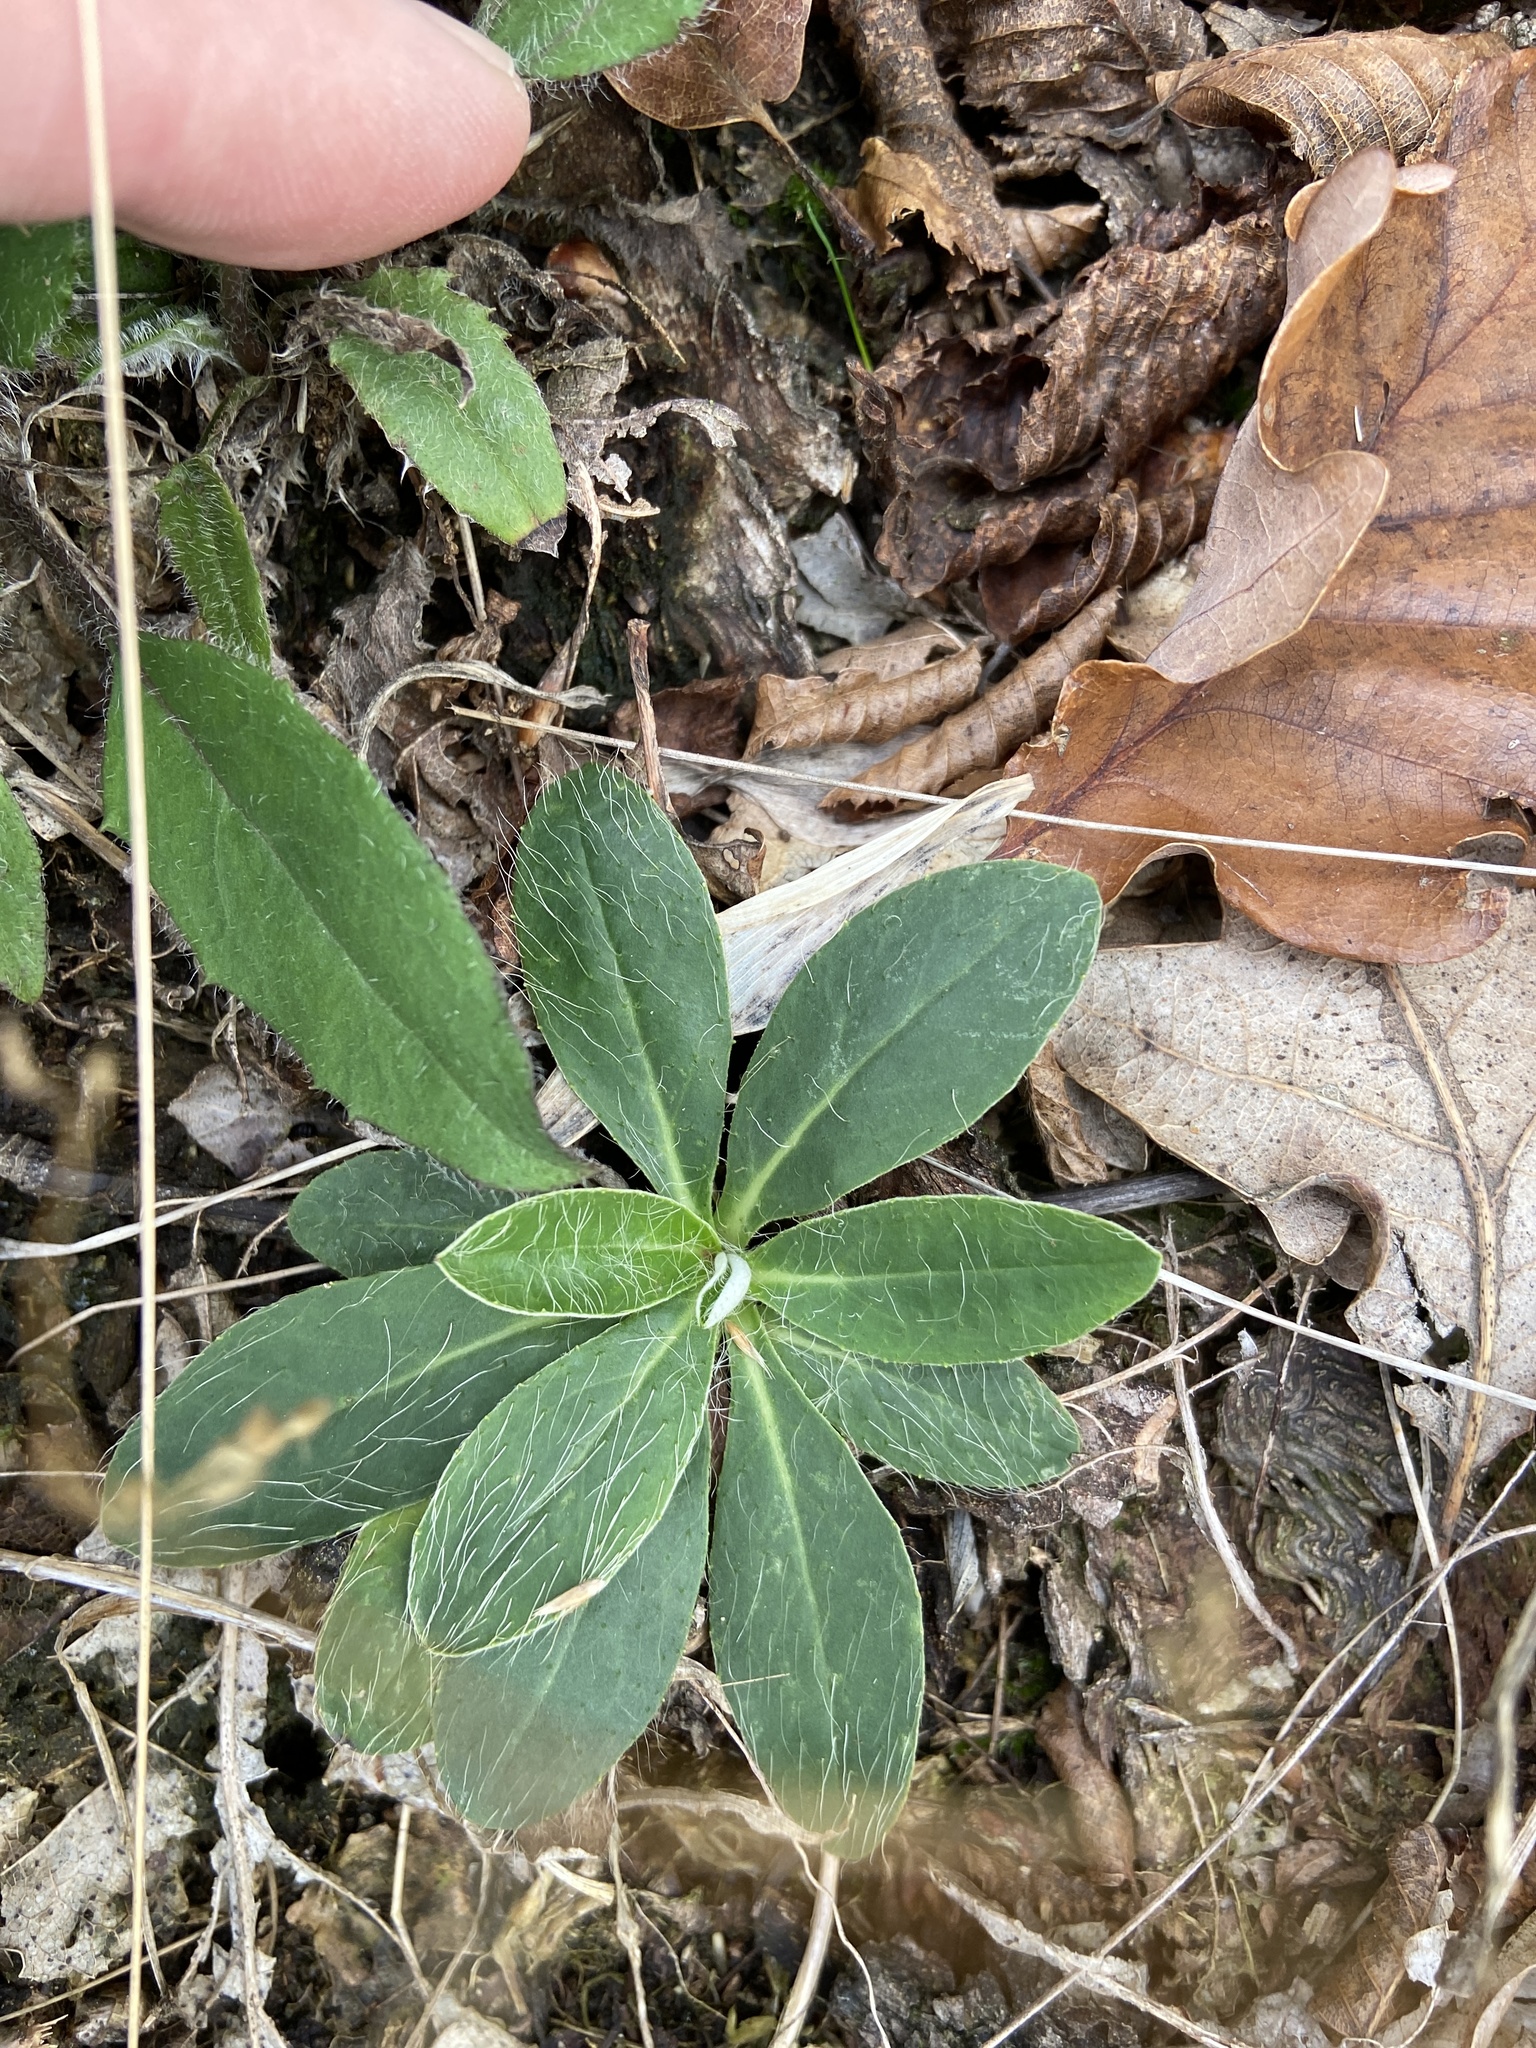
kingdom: Plantae
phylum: Tracheophyta
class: Magnoliopsida
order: Asterales
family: Asteraceae
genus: Pilosella
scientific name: Pilosella officinarum
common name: Mouse-ear hawkweed
